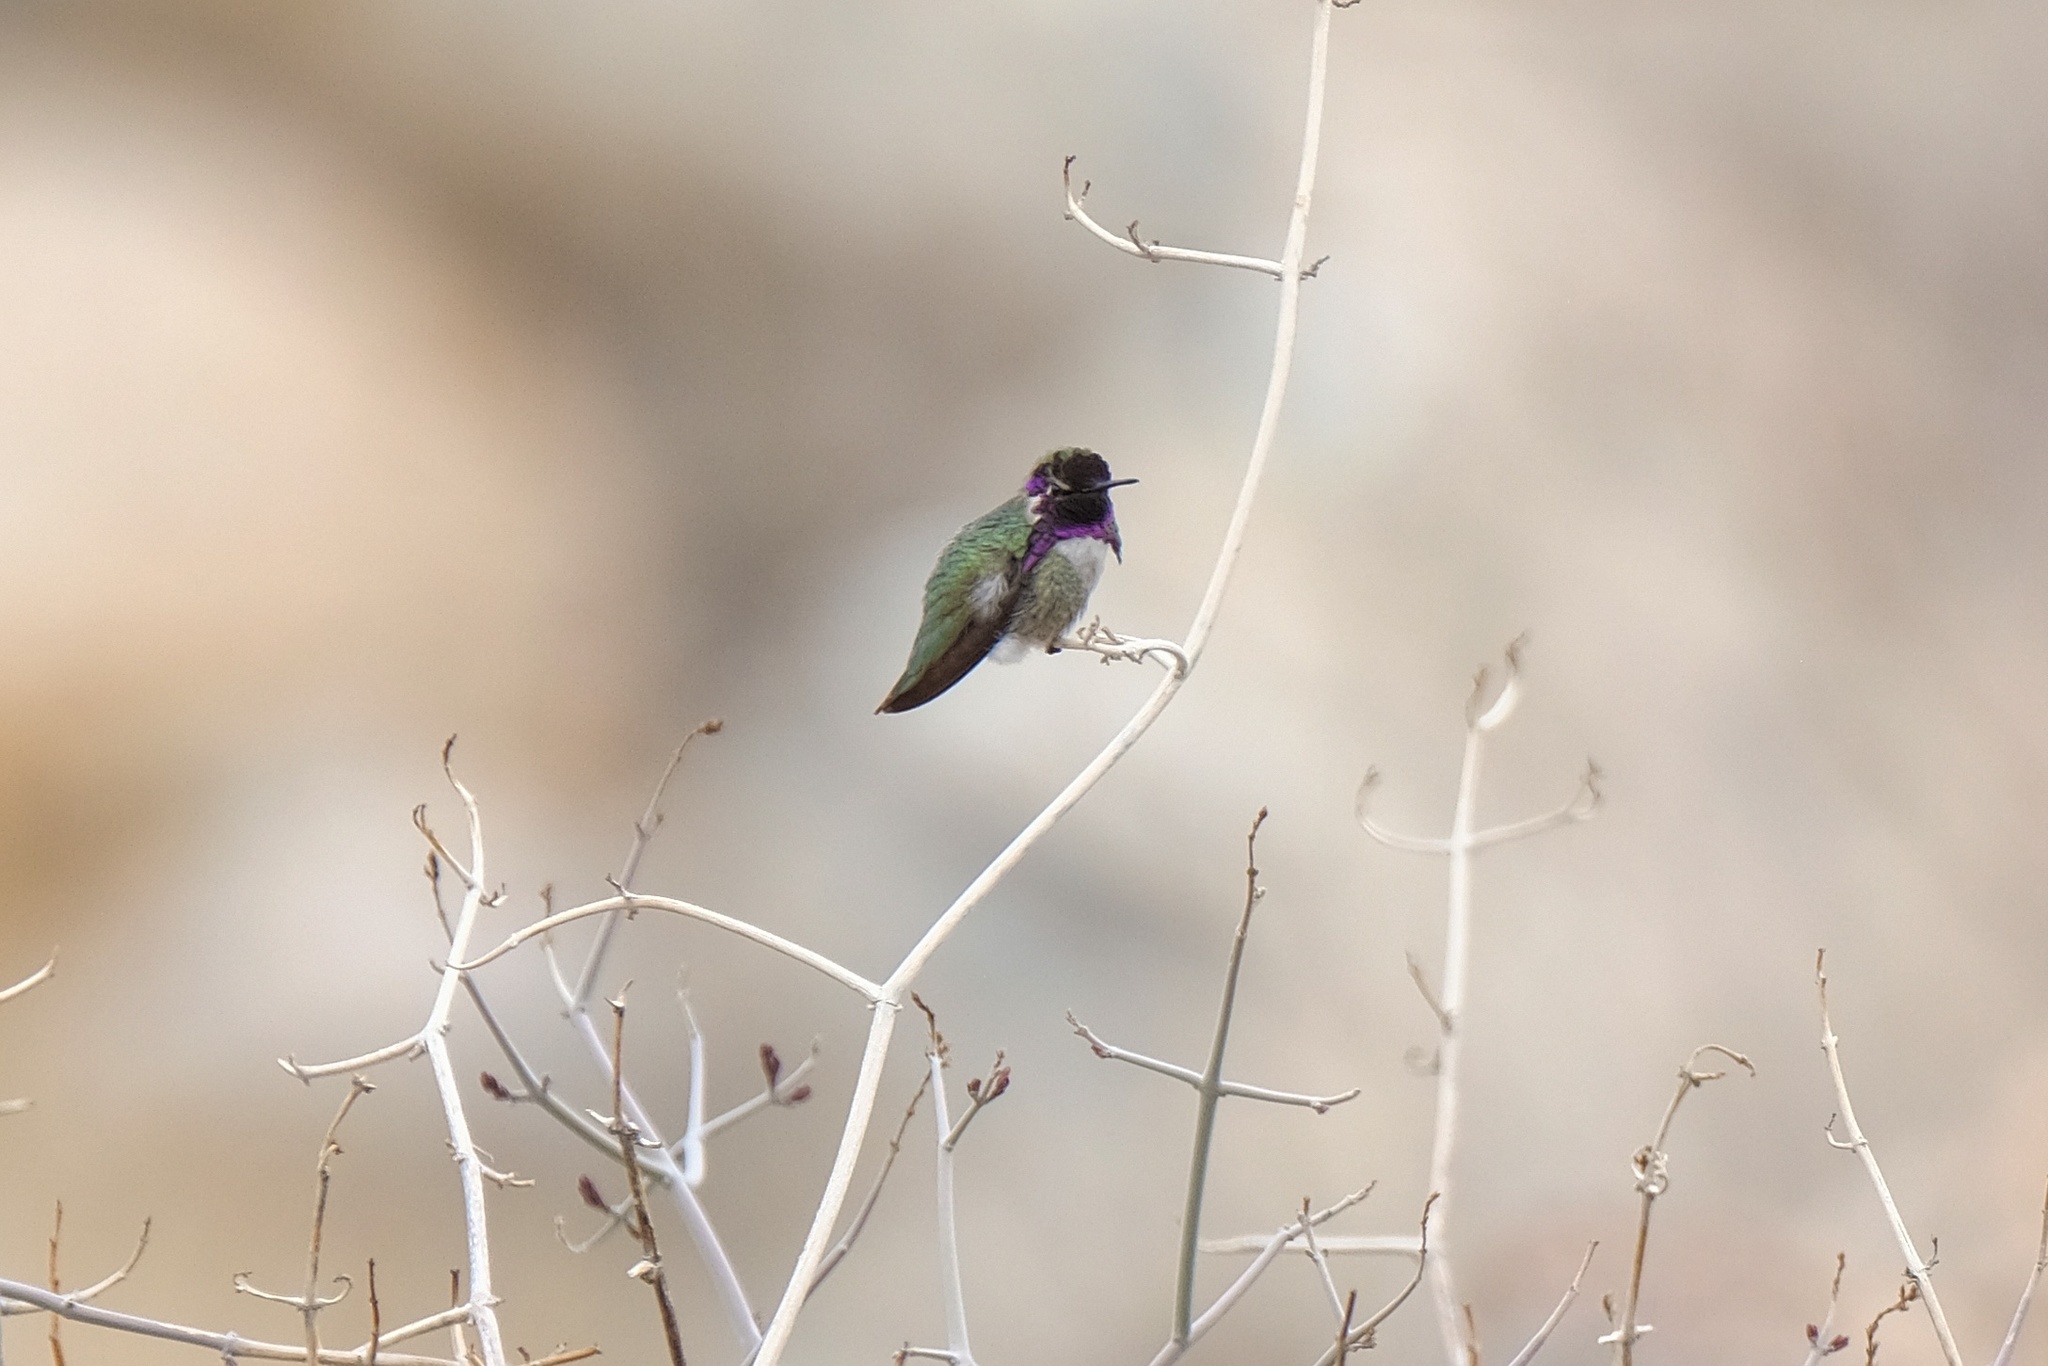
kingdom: Animalia
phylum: Chordata
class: Aves
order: Apodiformes
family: Trochilidae
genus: Calypte
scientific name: Calypte costae
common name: Costa's hummingbird
